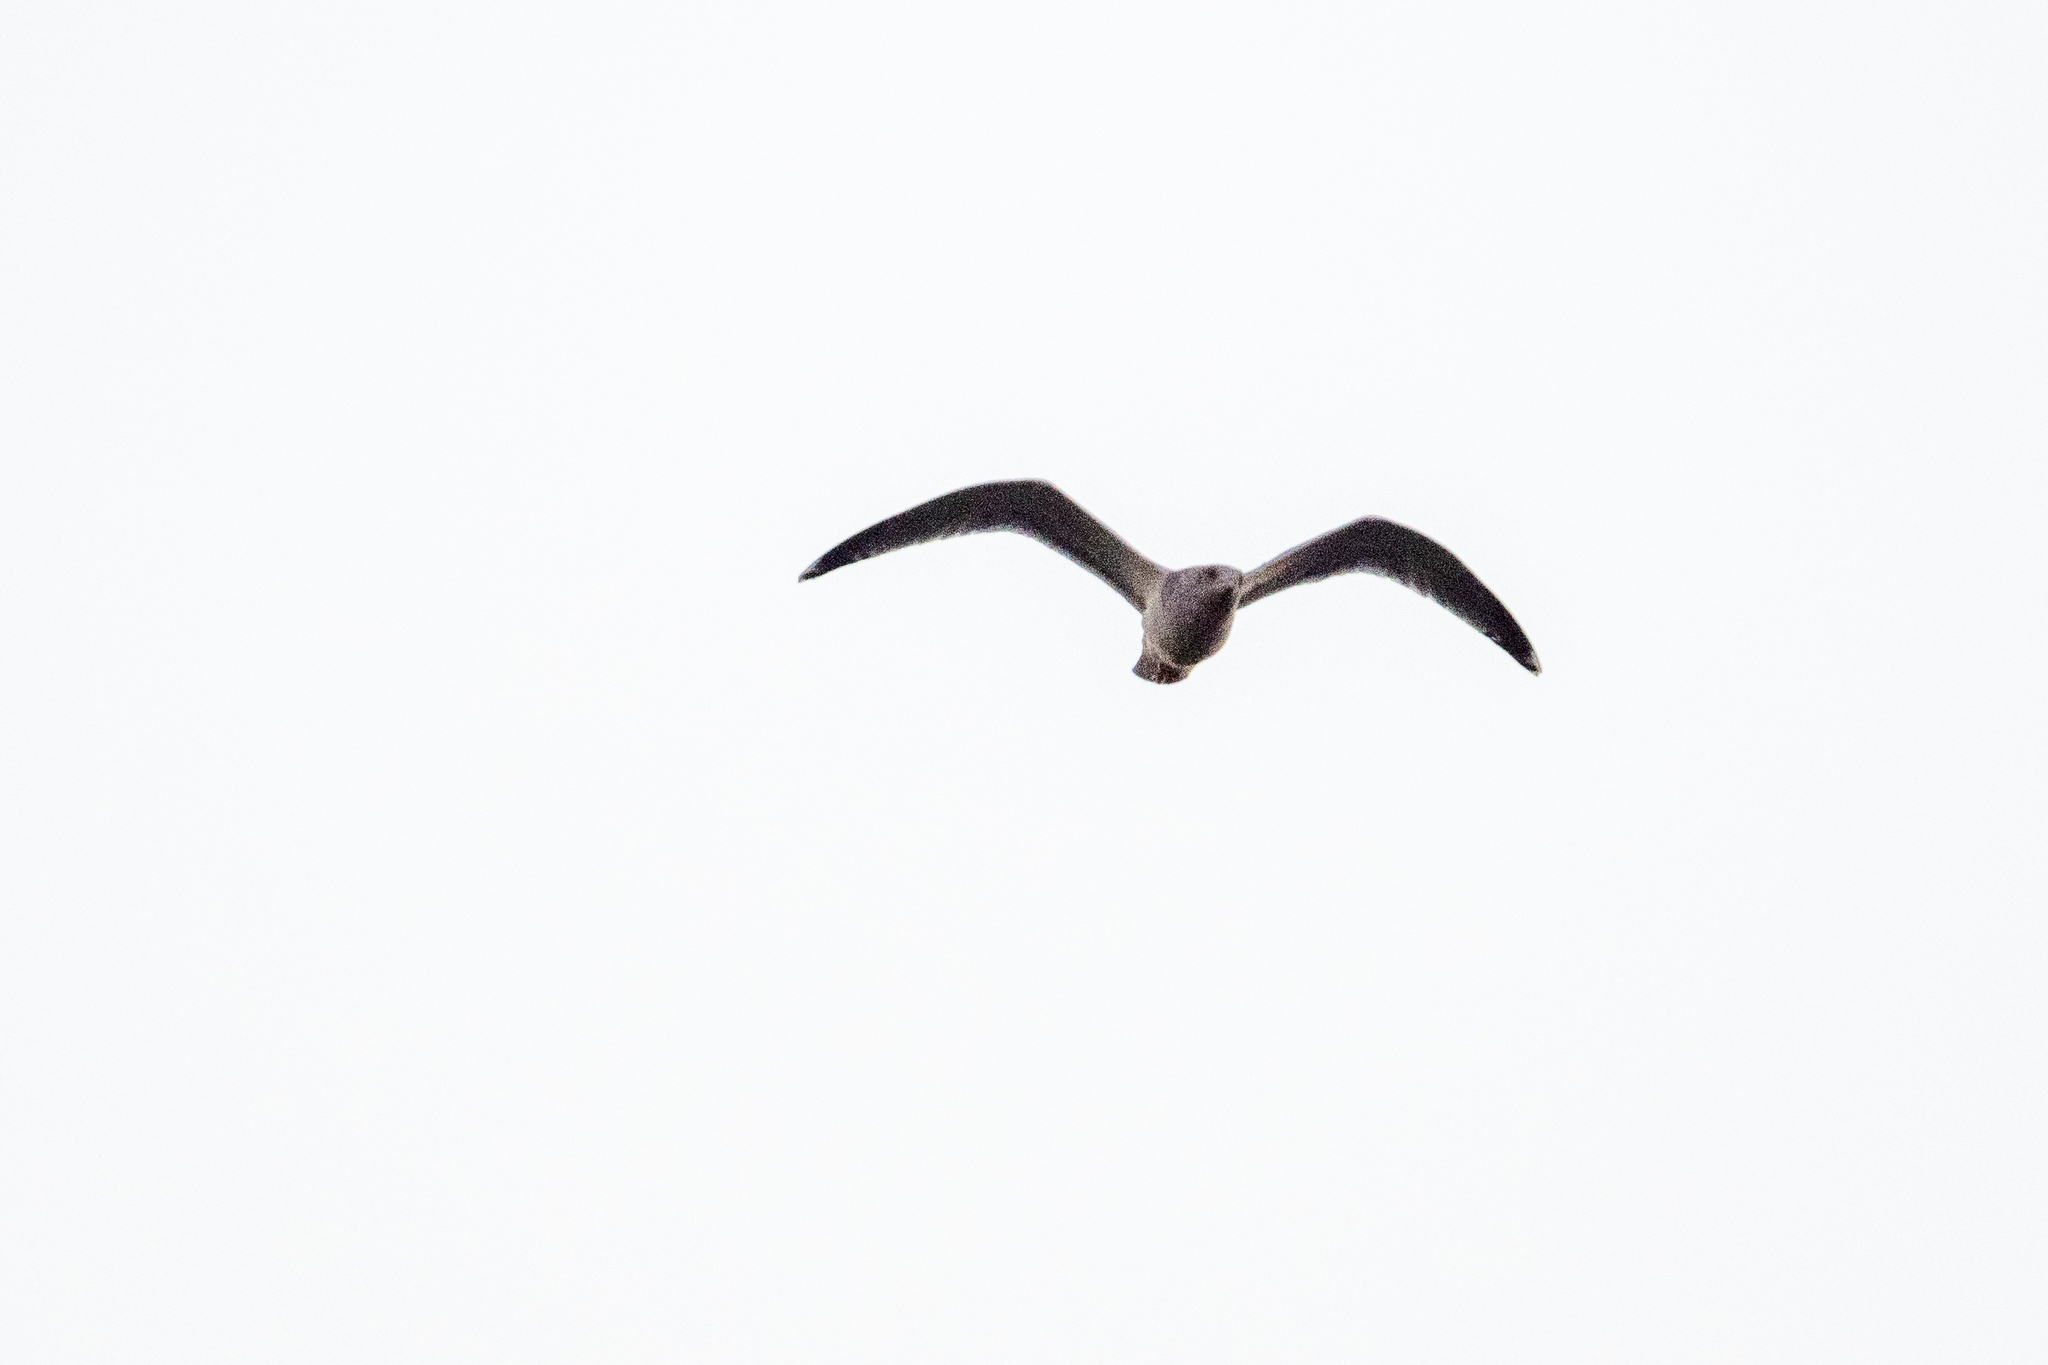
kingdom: Animalia
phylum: Chordata
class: Aves
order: Charadriiformes
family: Laridae
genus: Larus
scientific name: Larus
